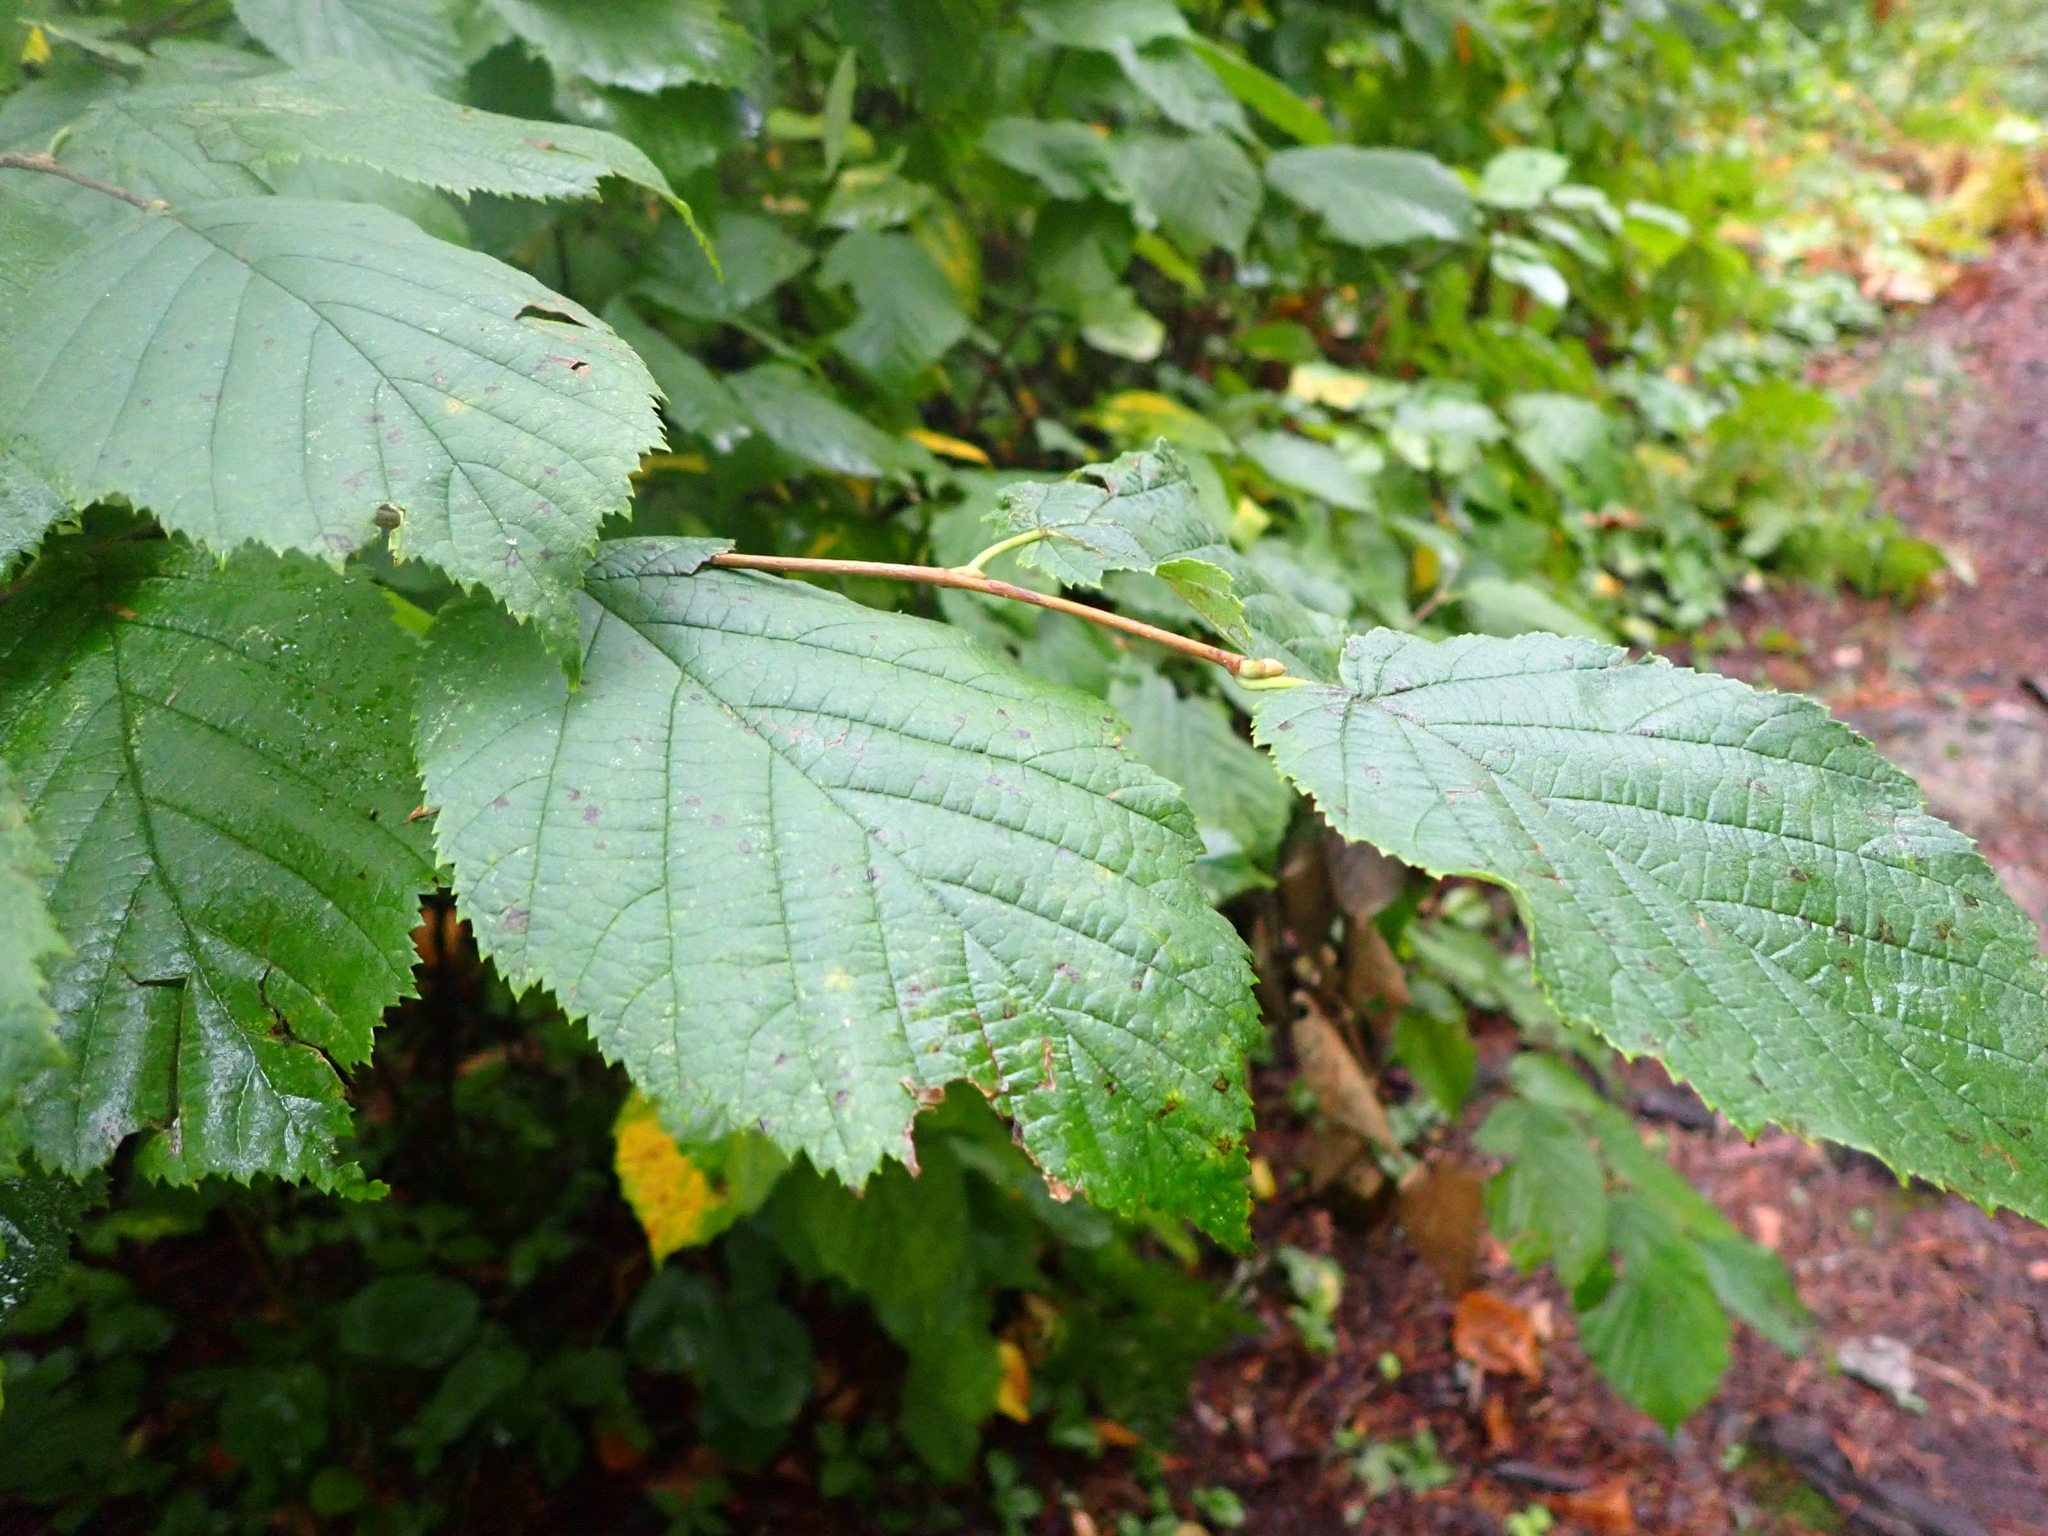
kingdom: Plantae
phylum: Tracheophyta
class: Magnoliopsida
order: Fagales
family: Betulaceae
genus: Corylus
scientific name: Corylus cornuta
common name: Beaked hazel
